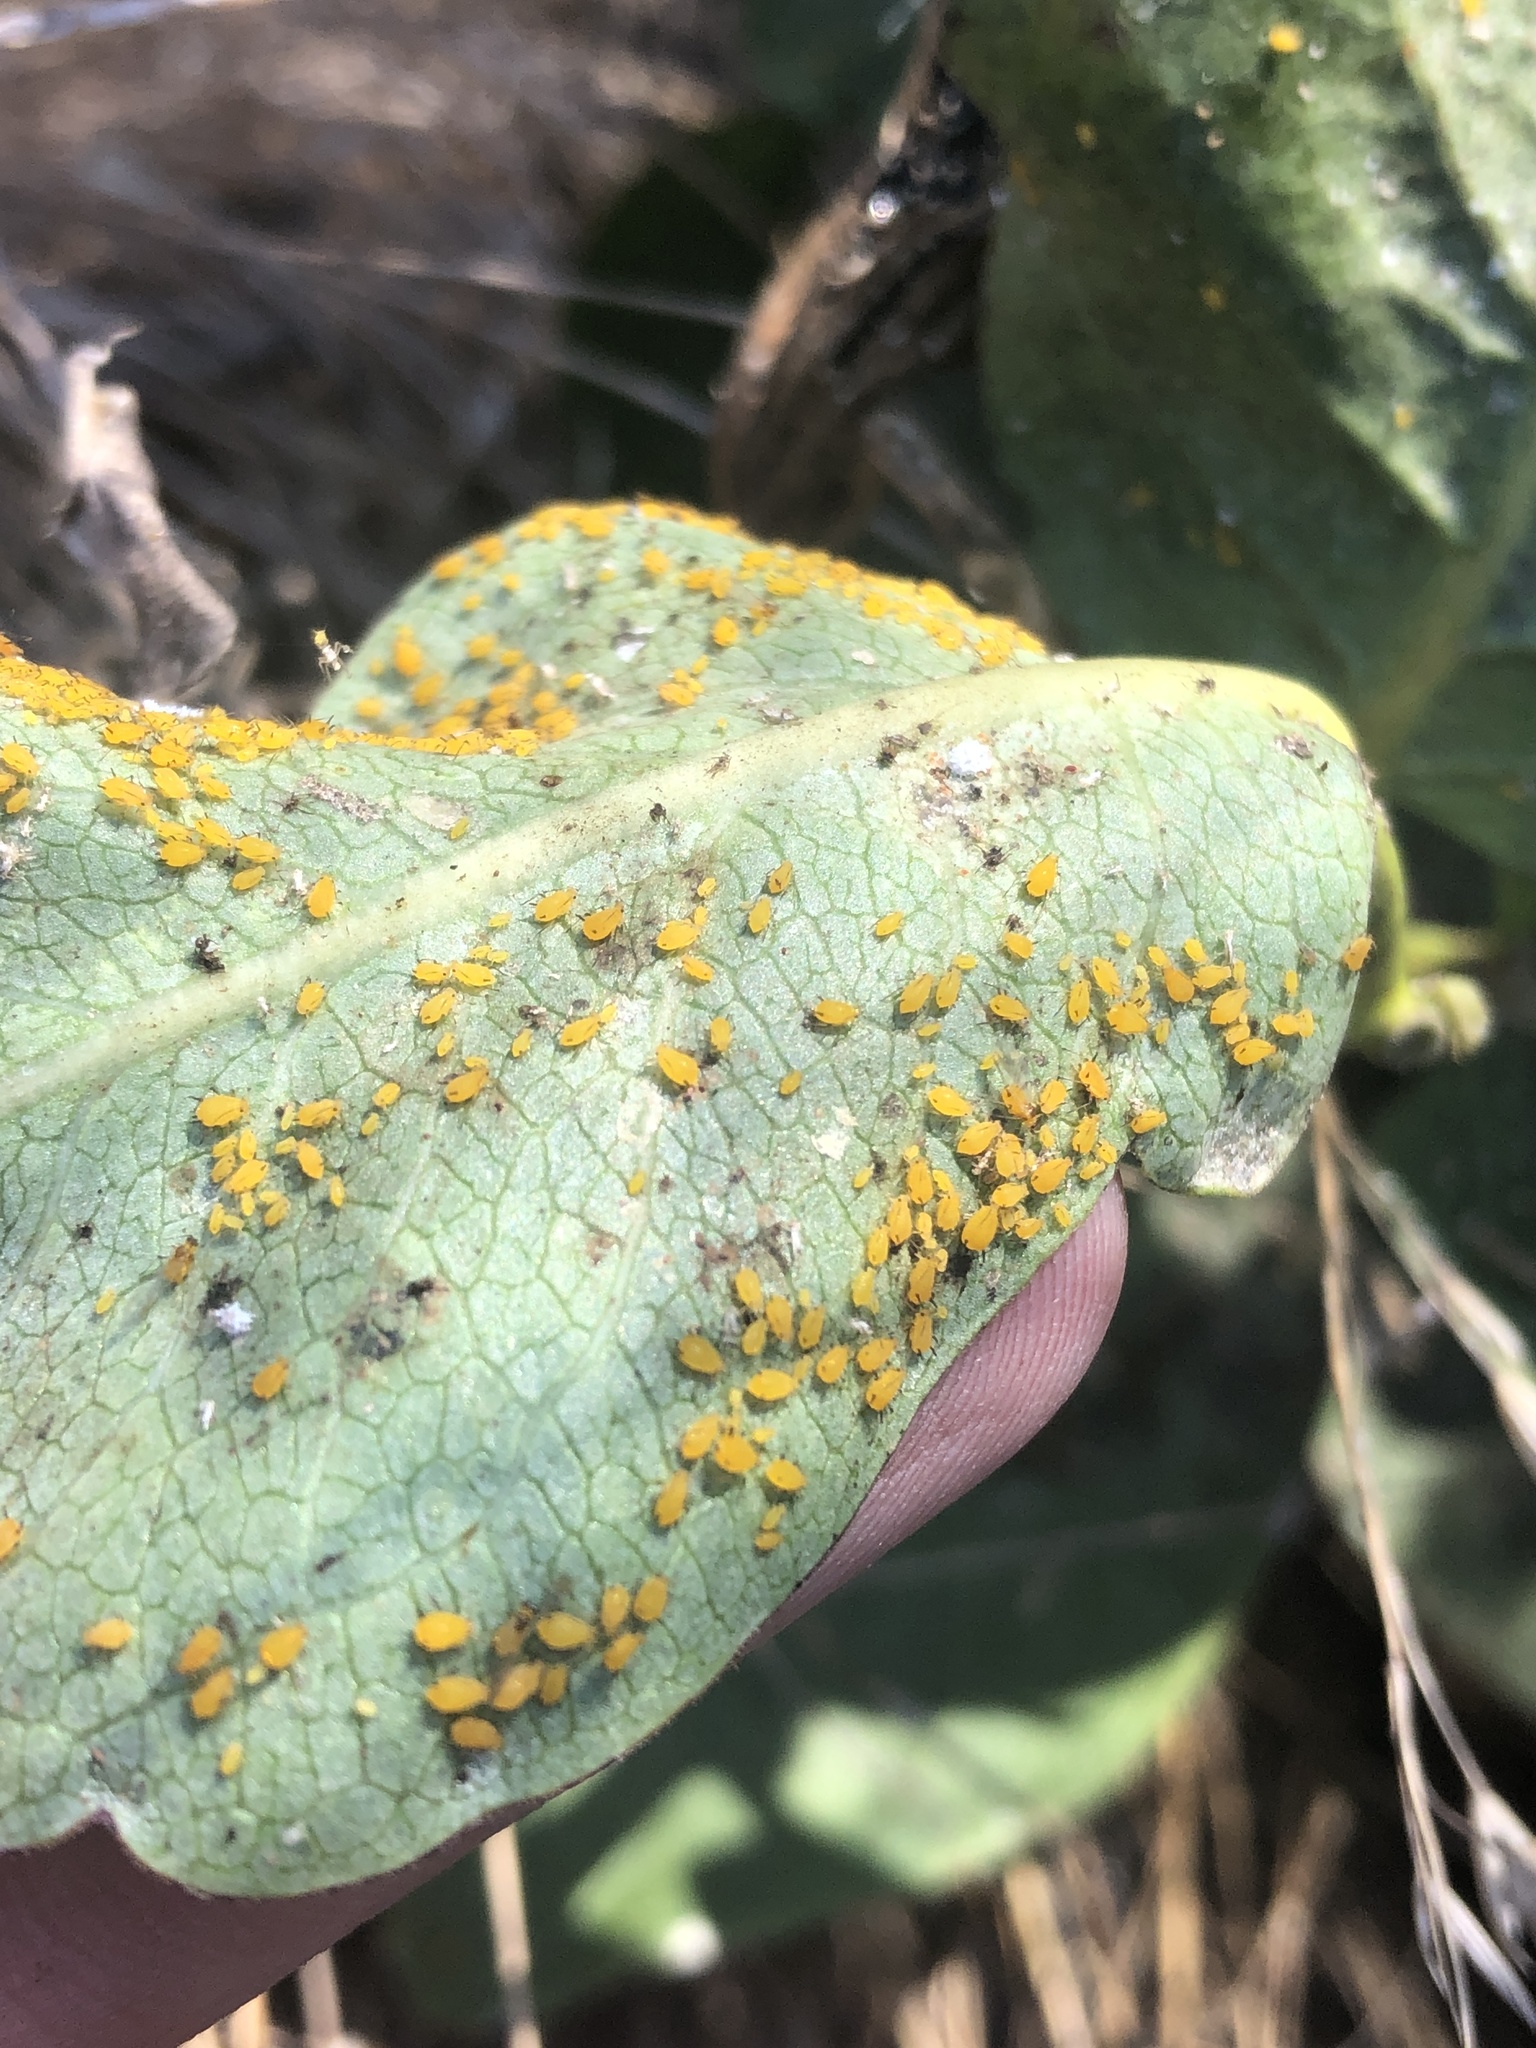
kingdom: Animalia
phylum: Arthropoda
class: Insecta
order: Hemiptera
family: Aphididae
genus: Aphis
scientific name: Aphis nerii
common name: Oleander aphid
